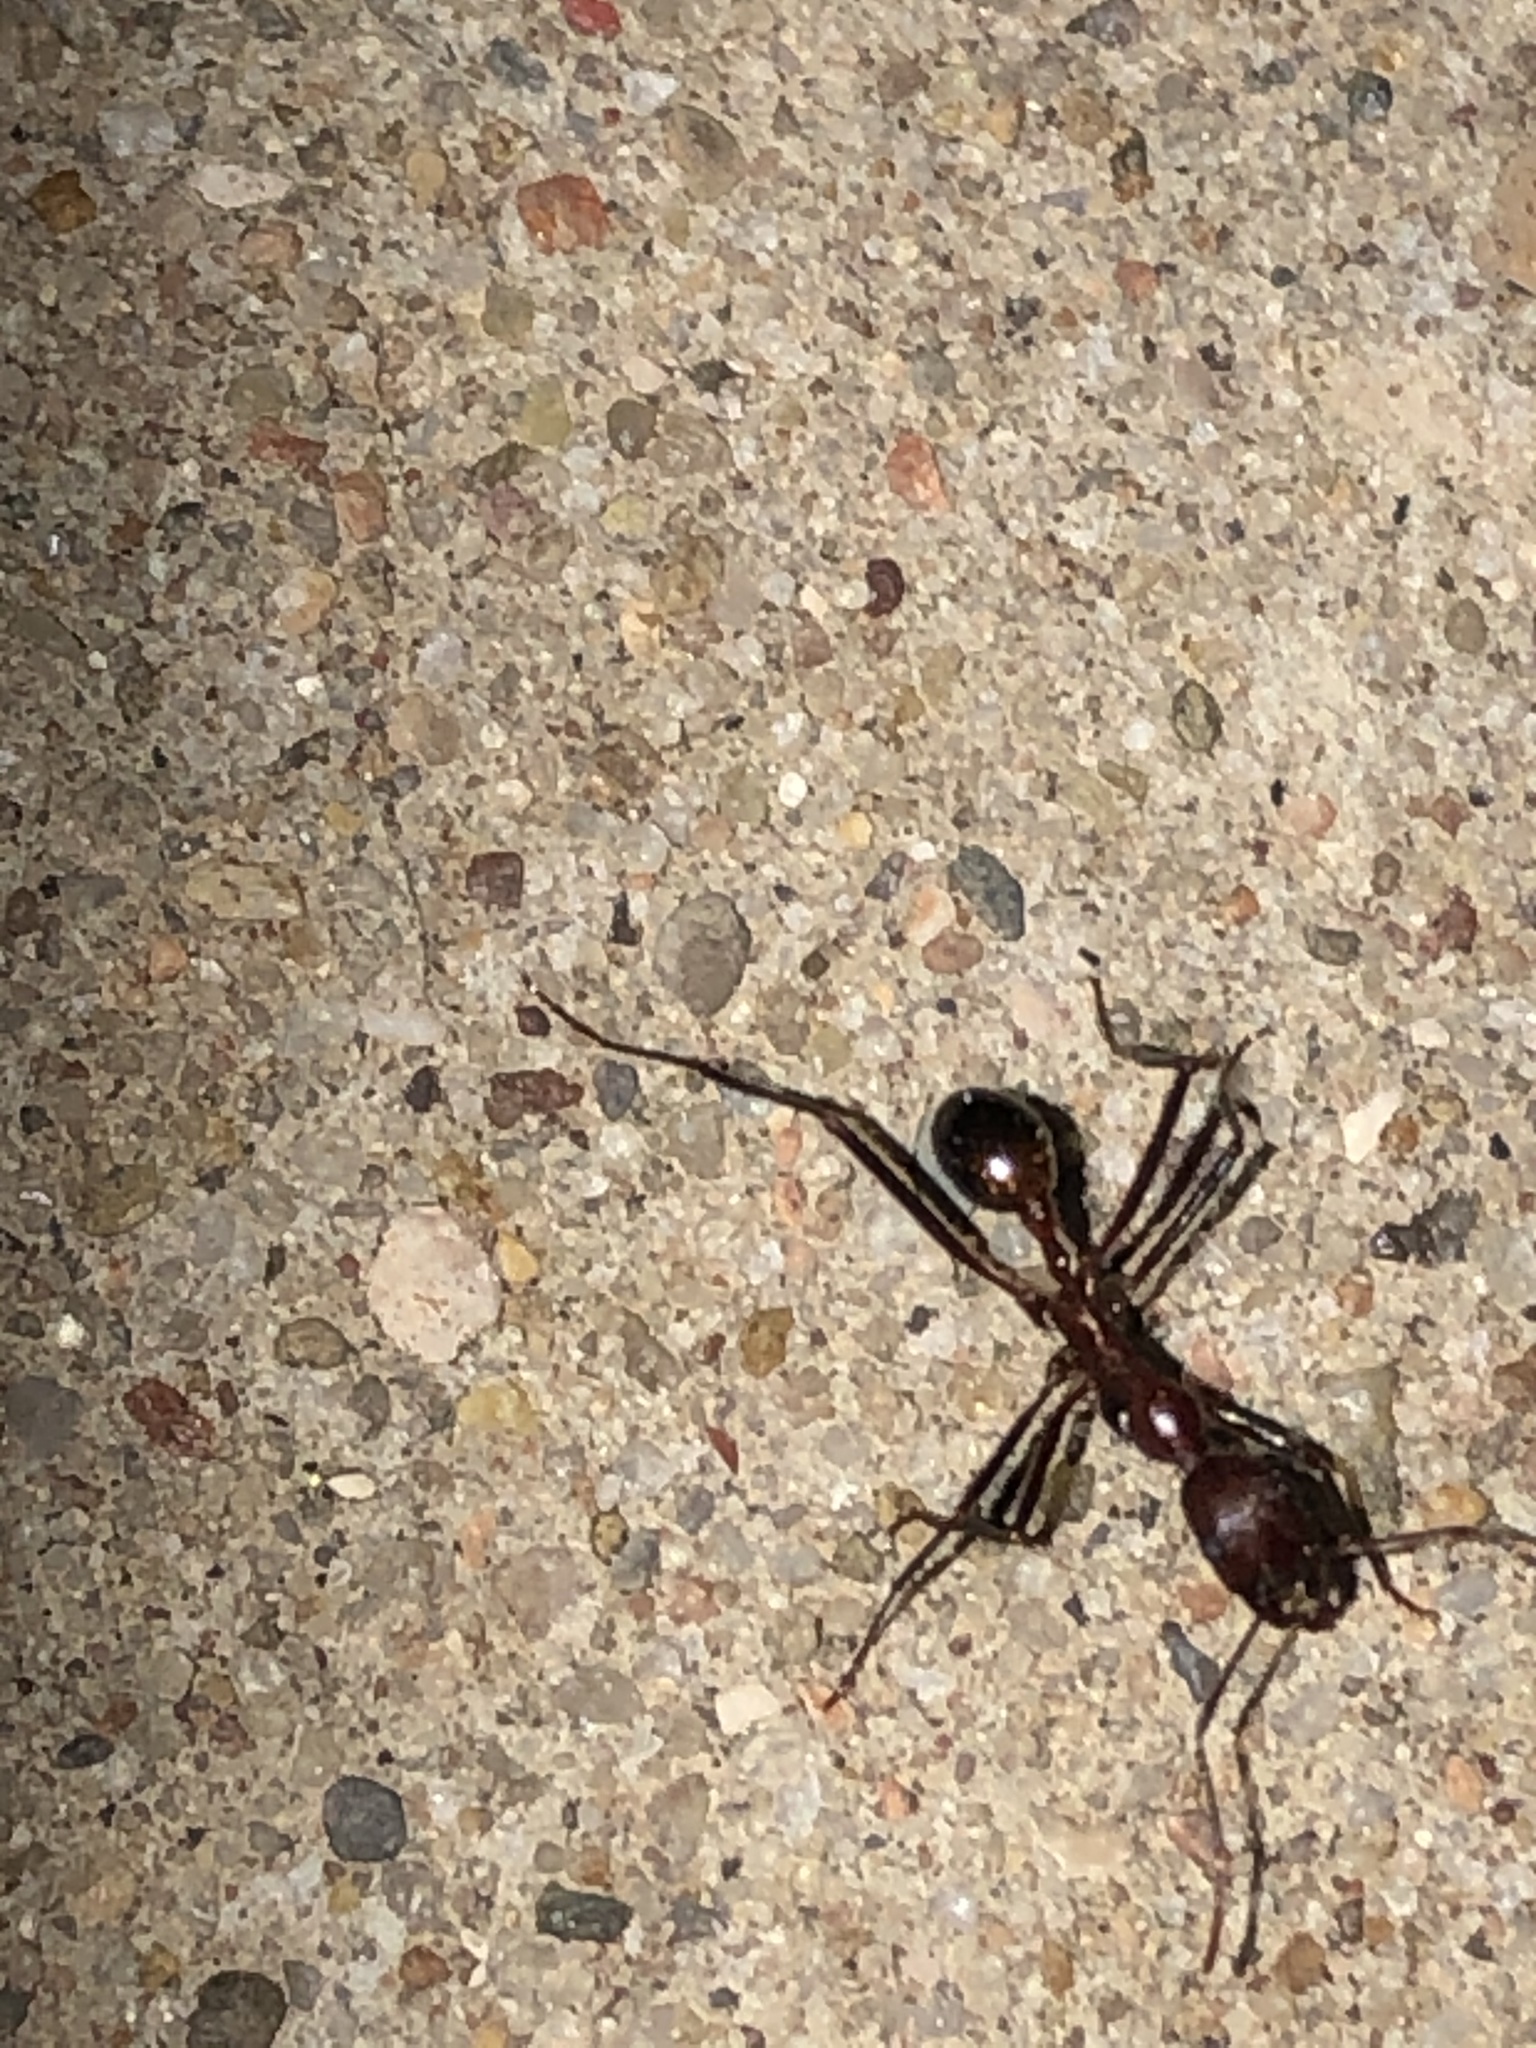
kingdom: Animalia
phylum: Arthropoda
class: Insecta
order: Hymenoptera
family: Formicidae
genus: Novomessor
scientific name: Novomessor cockerelli
